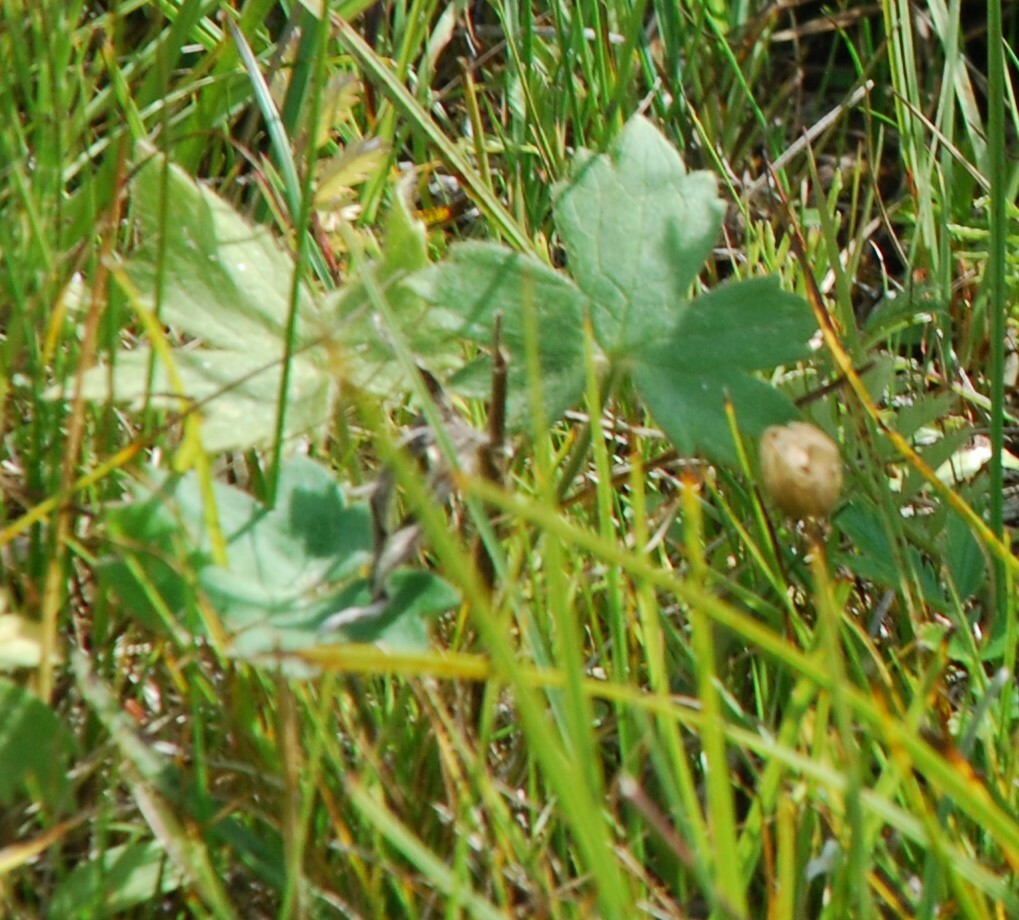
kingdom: Plantae
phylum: Tracheophyta
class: Magnoliopsida
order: Ranunculales
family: Ranunculaceae
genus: Ranunculus
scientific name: Ranunculus propinquus
